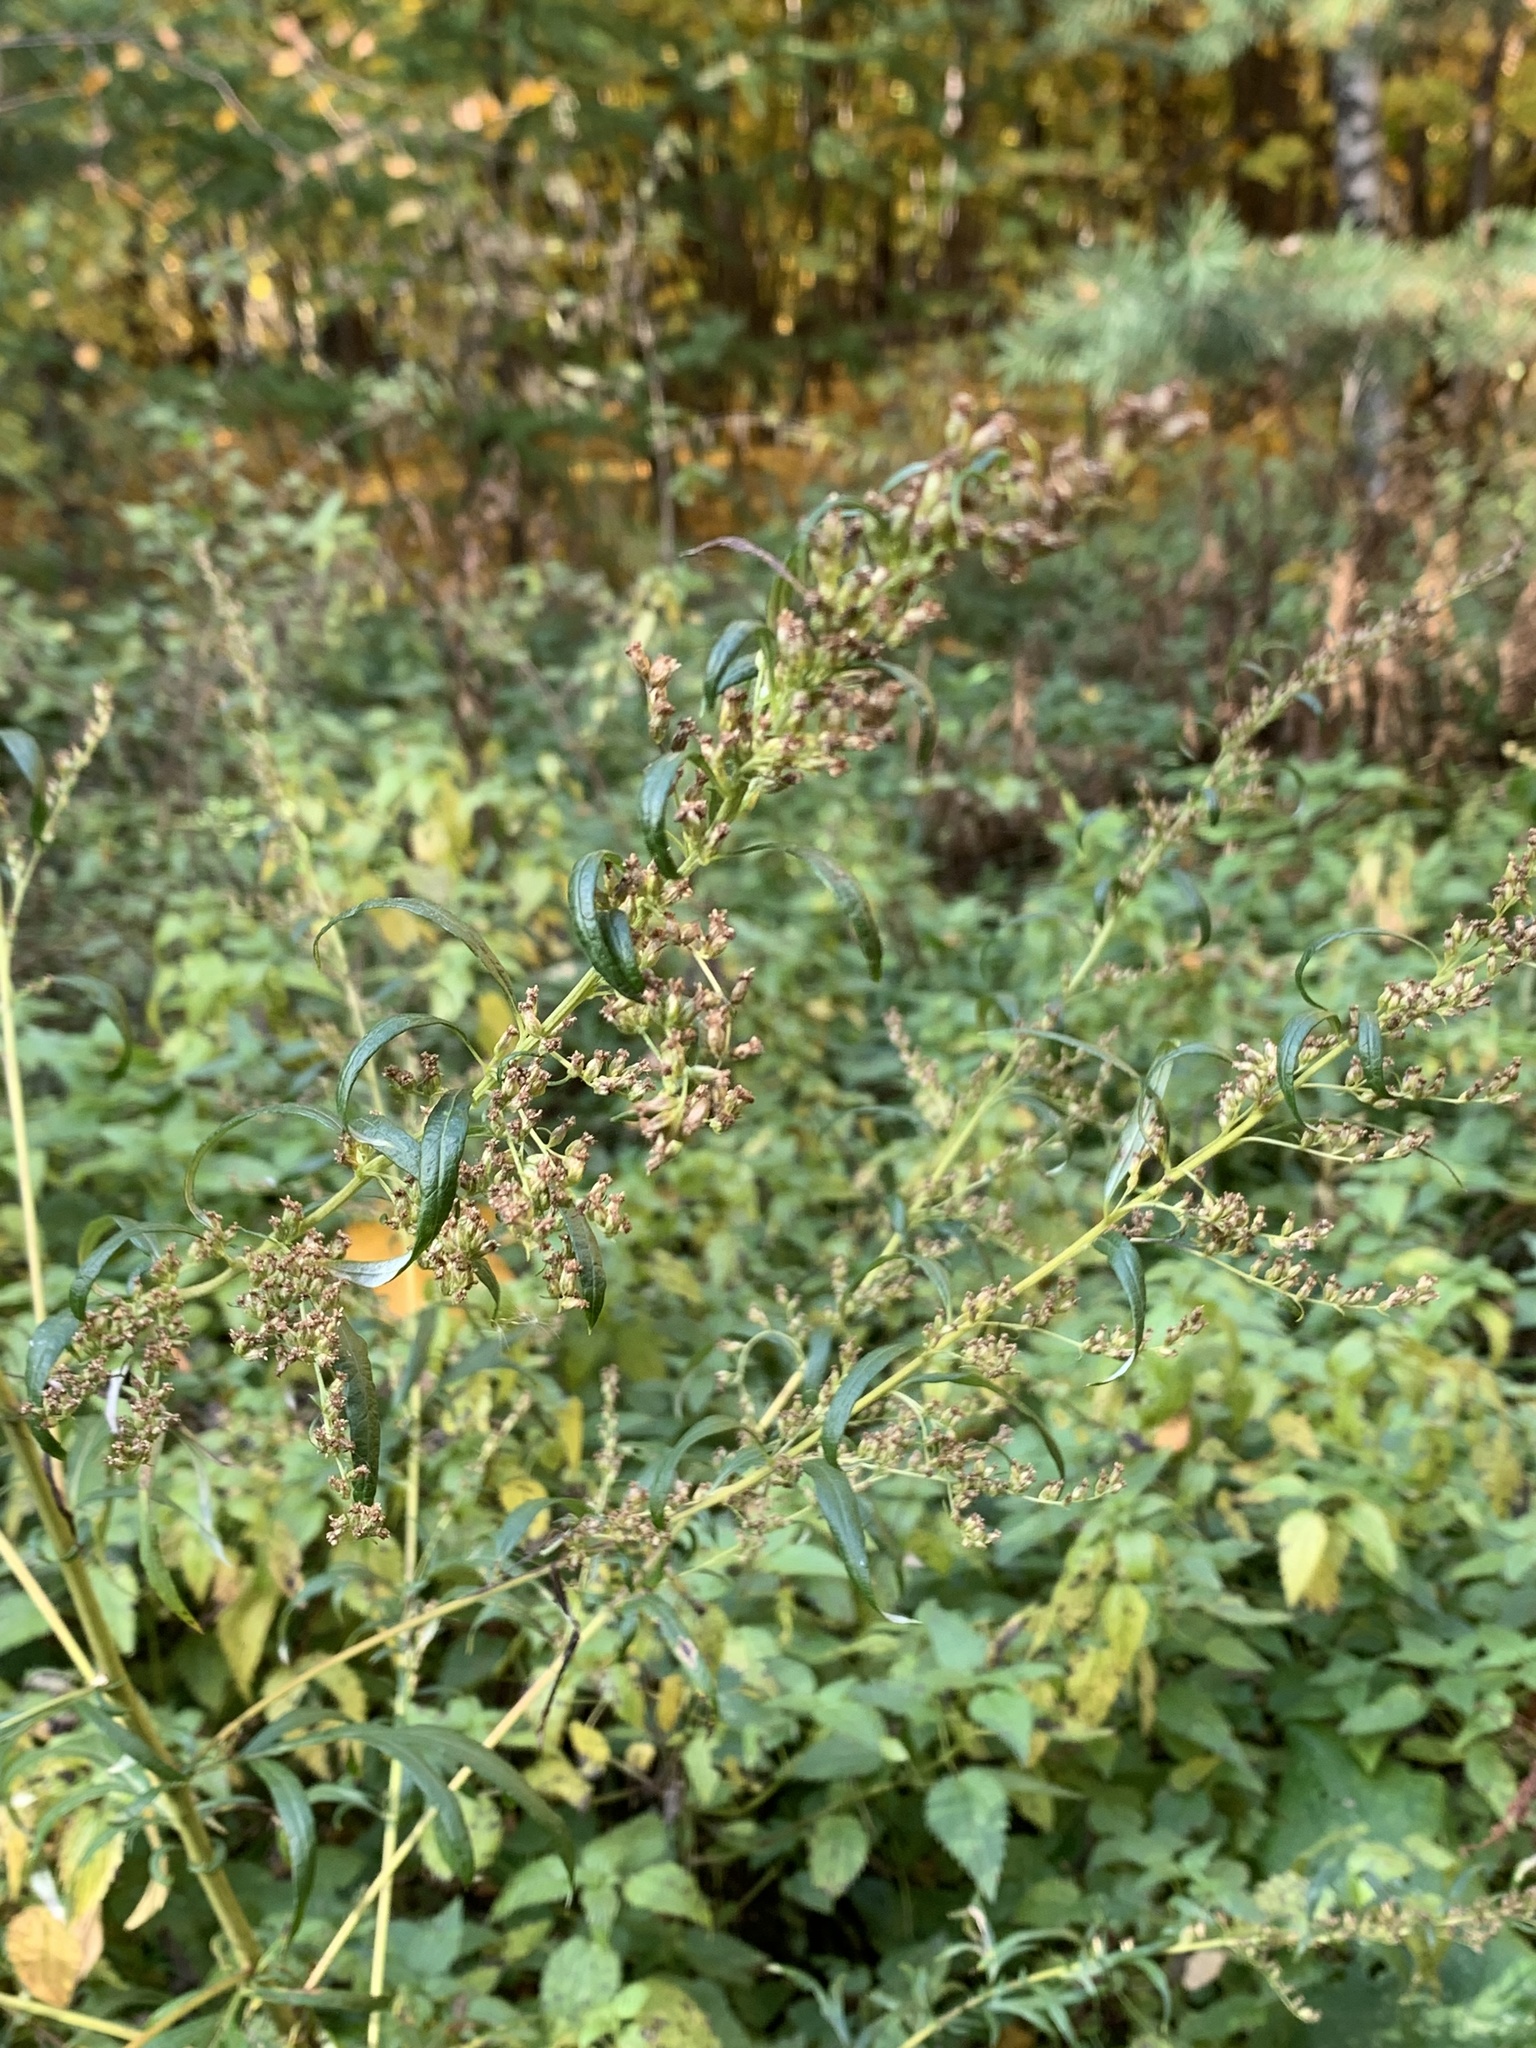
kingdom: Plantae
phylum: Tracheophyta
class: Magnoliopsida
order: Asterales
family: Asteraceae
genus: Artemisia
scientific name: Artemisia vulgaris
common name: Mugwort
